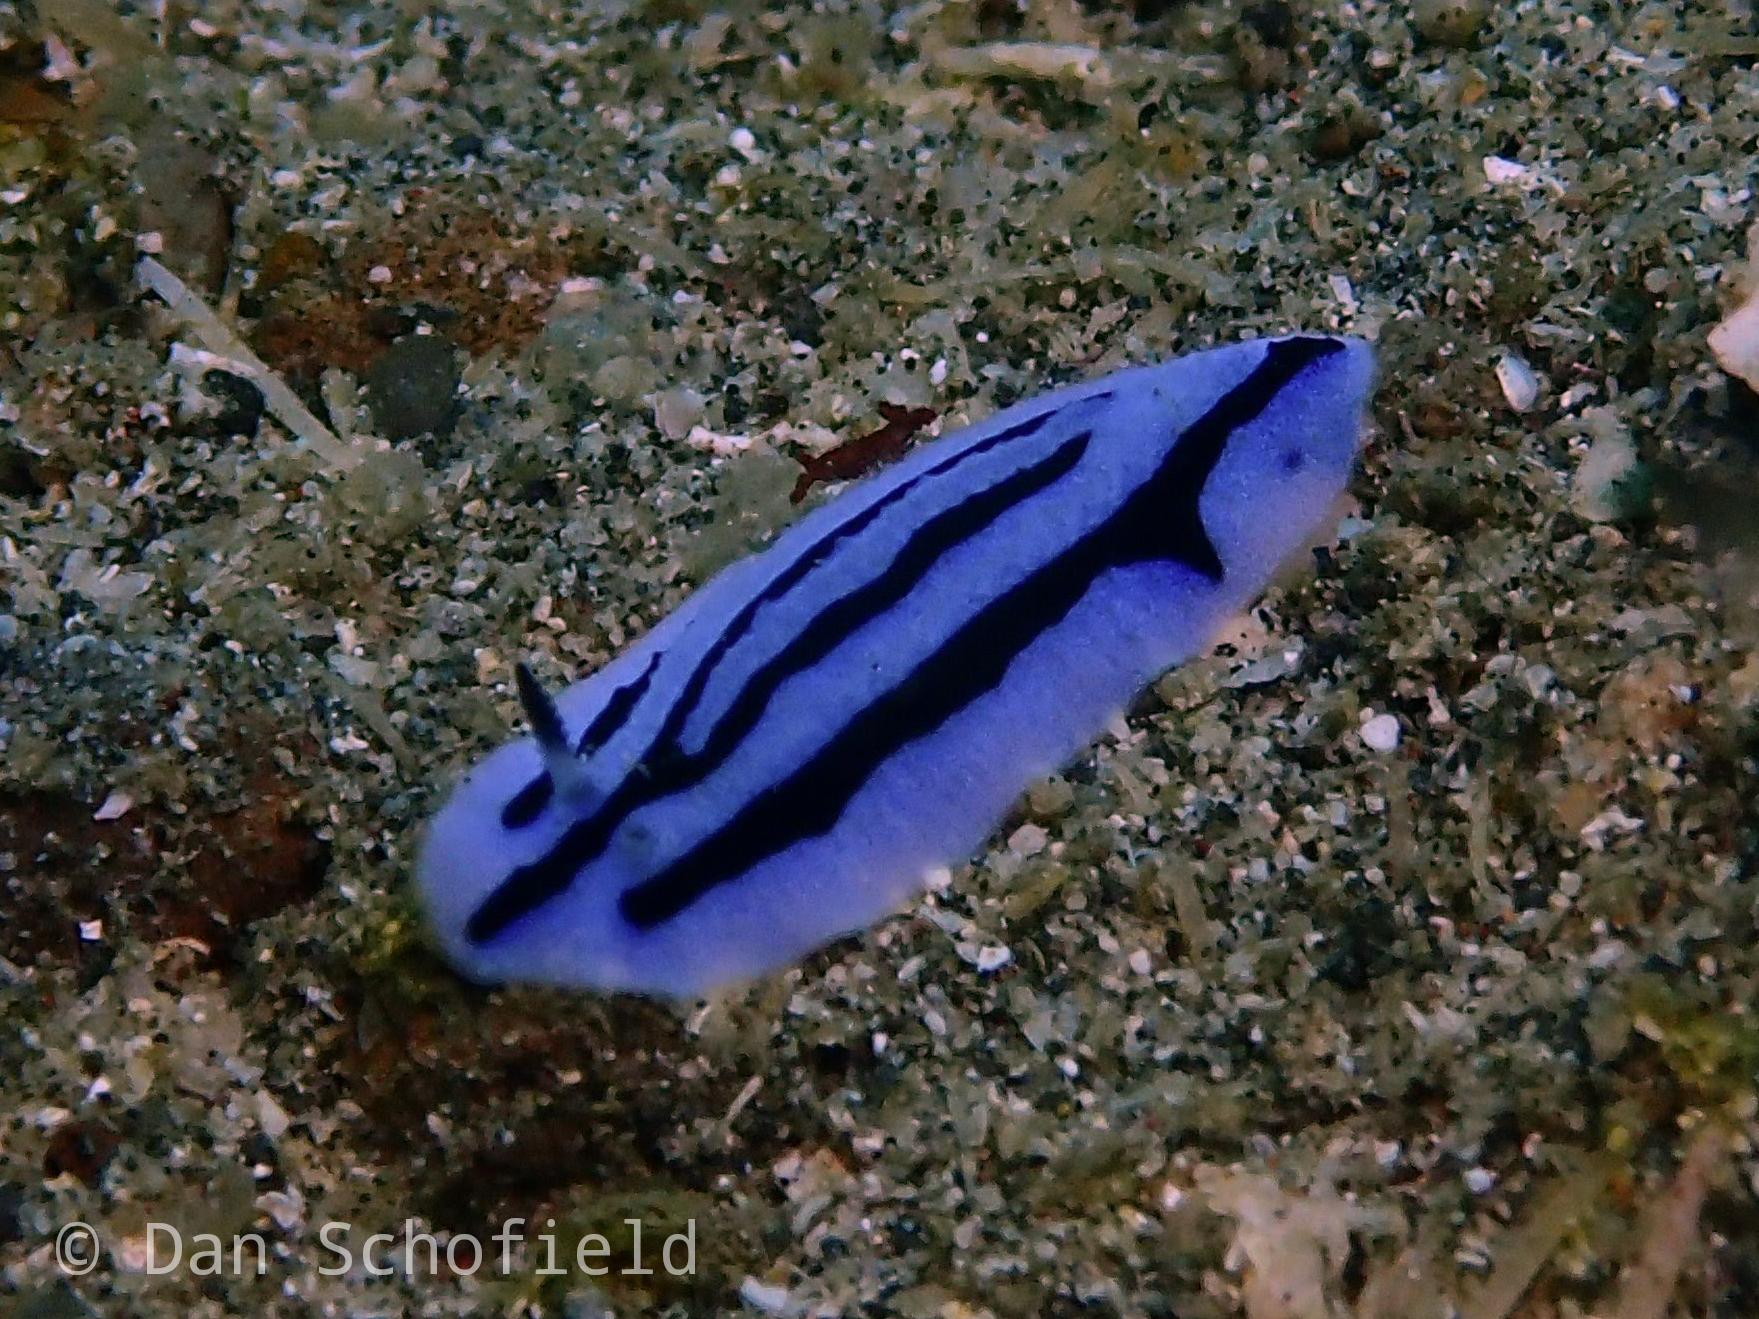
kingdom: Animalia
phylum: Mollusca
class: Gastropoda
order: Nudibranchia
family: Phyllidiidae
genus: Phyllidiopsis
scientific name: Phyllidiopsis annae
